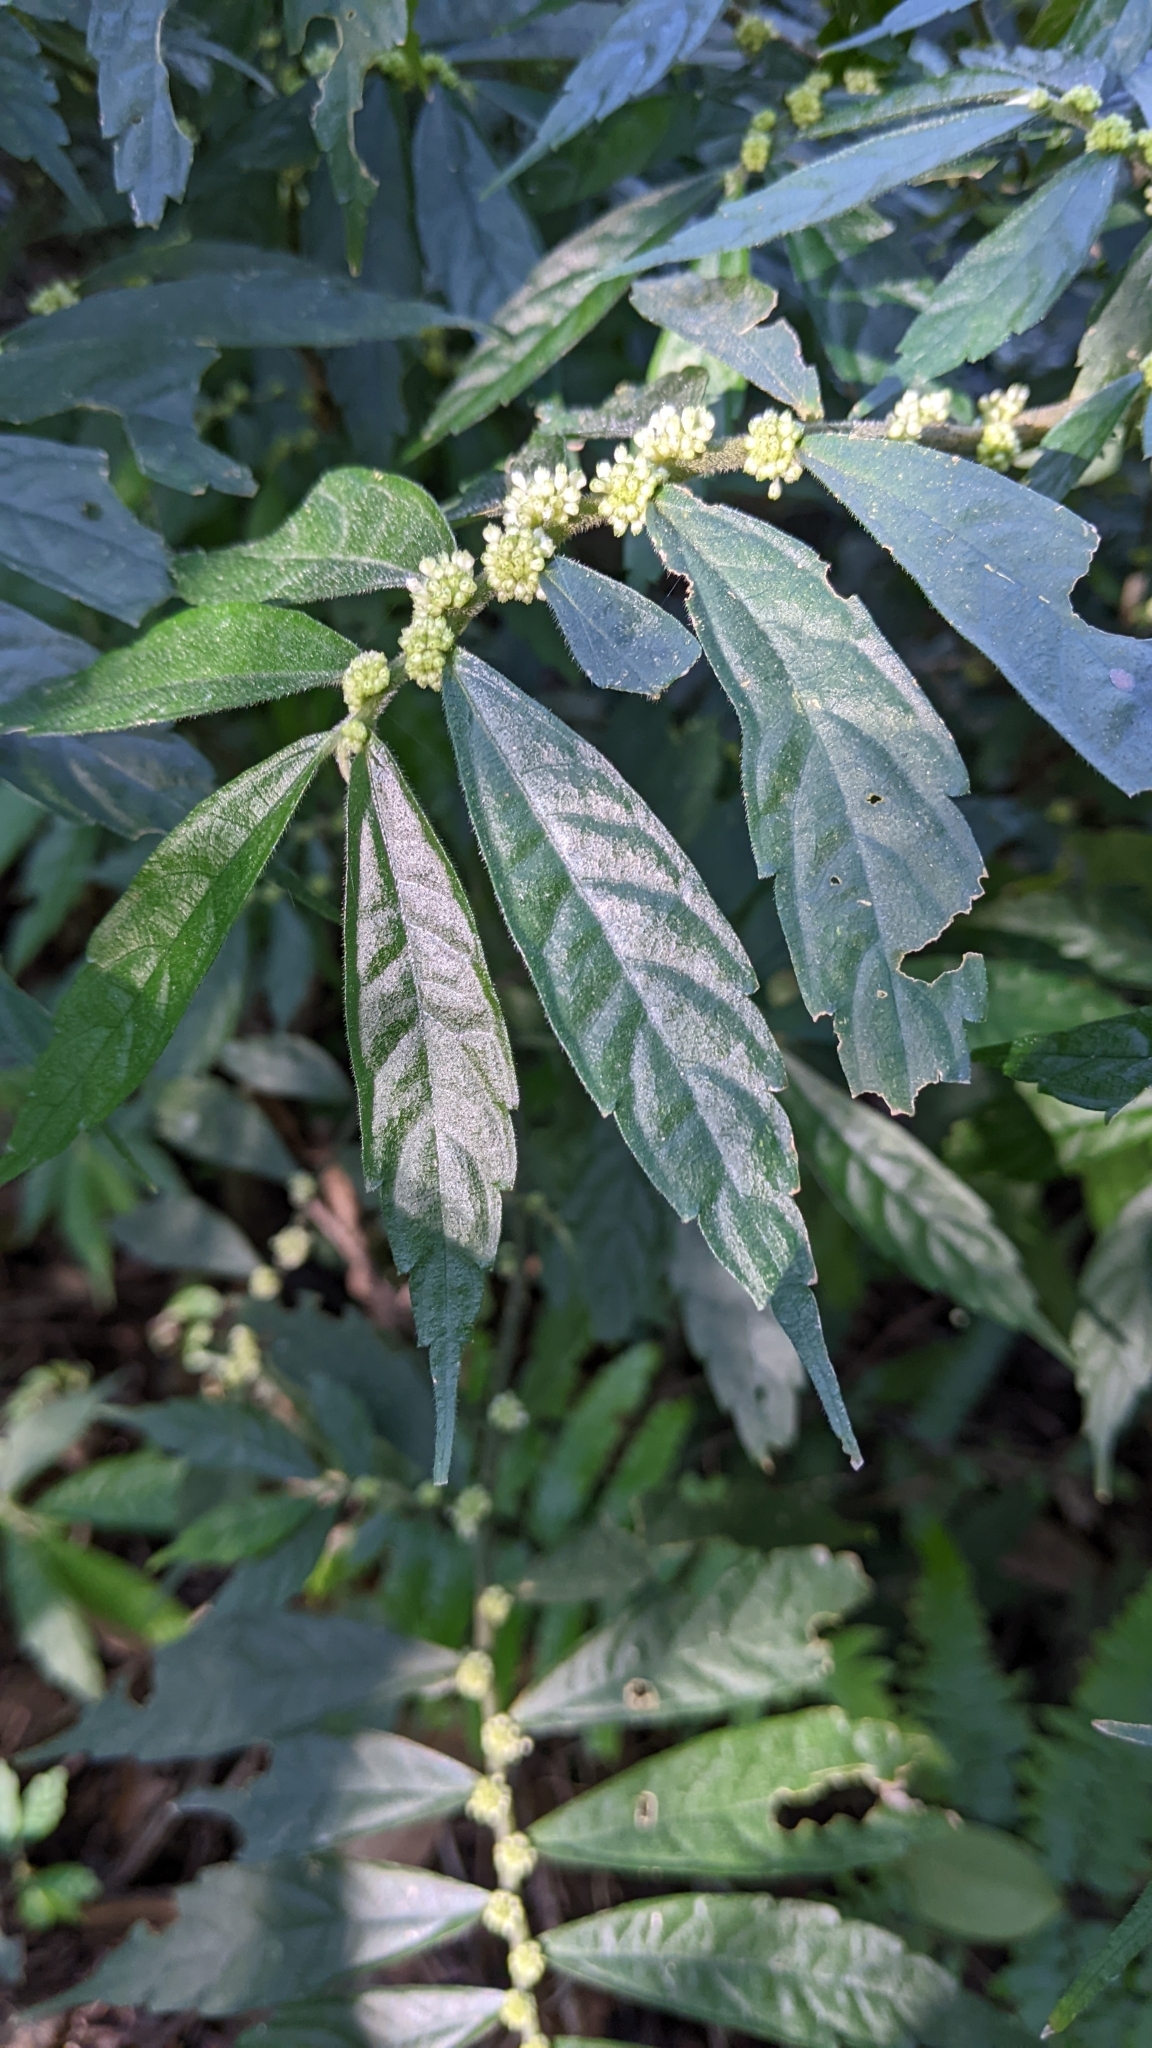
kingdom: Plantae
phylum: Tracheophyta
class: Magnoliopsida
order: Rosales
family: Urticaceae
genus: Elatostema
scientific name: Elatostema lineolatum
